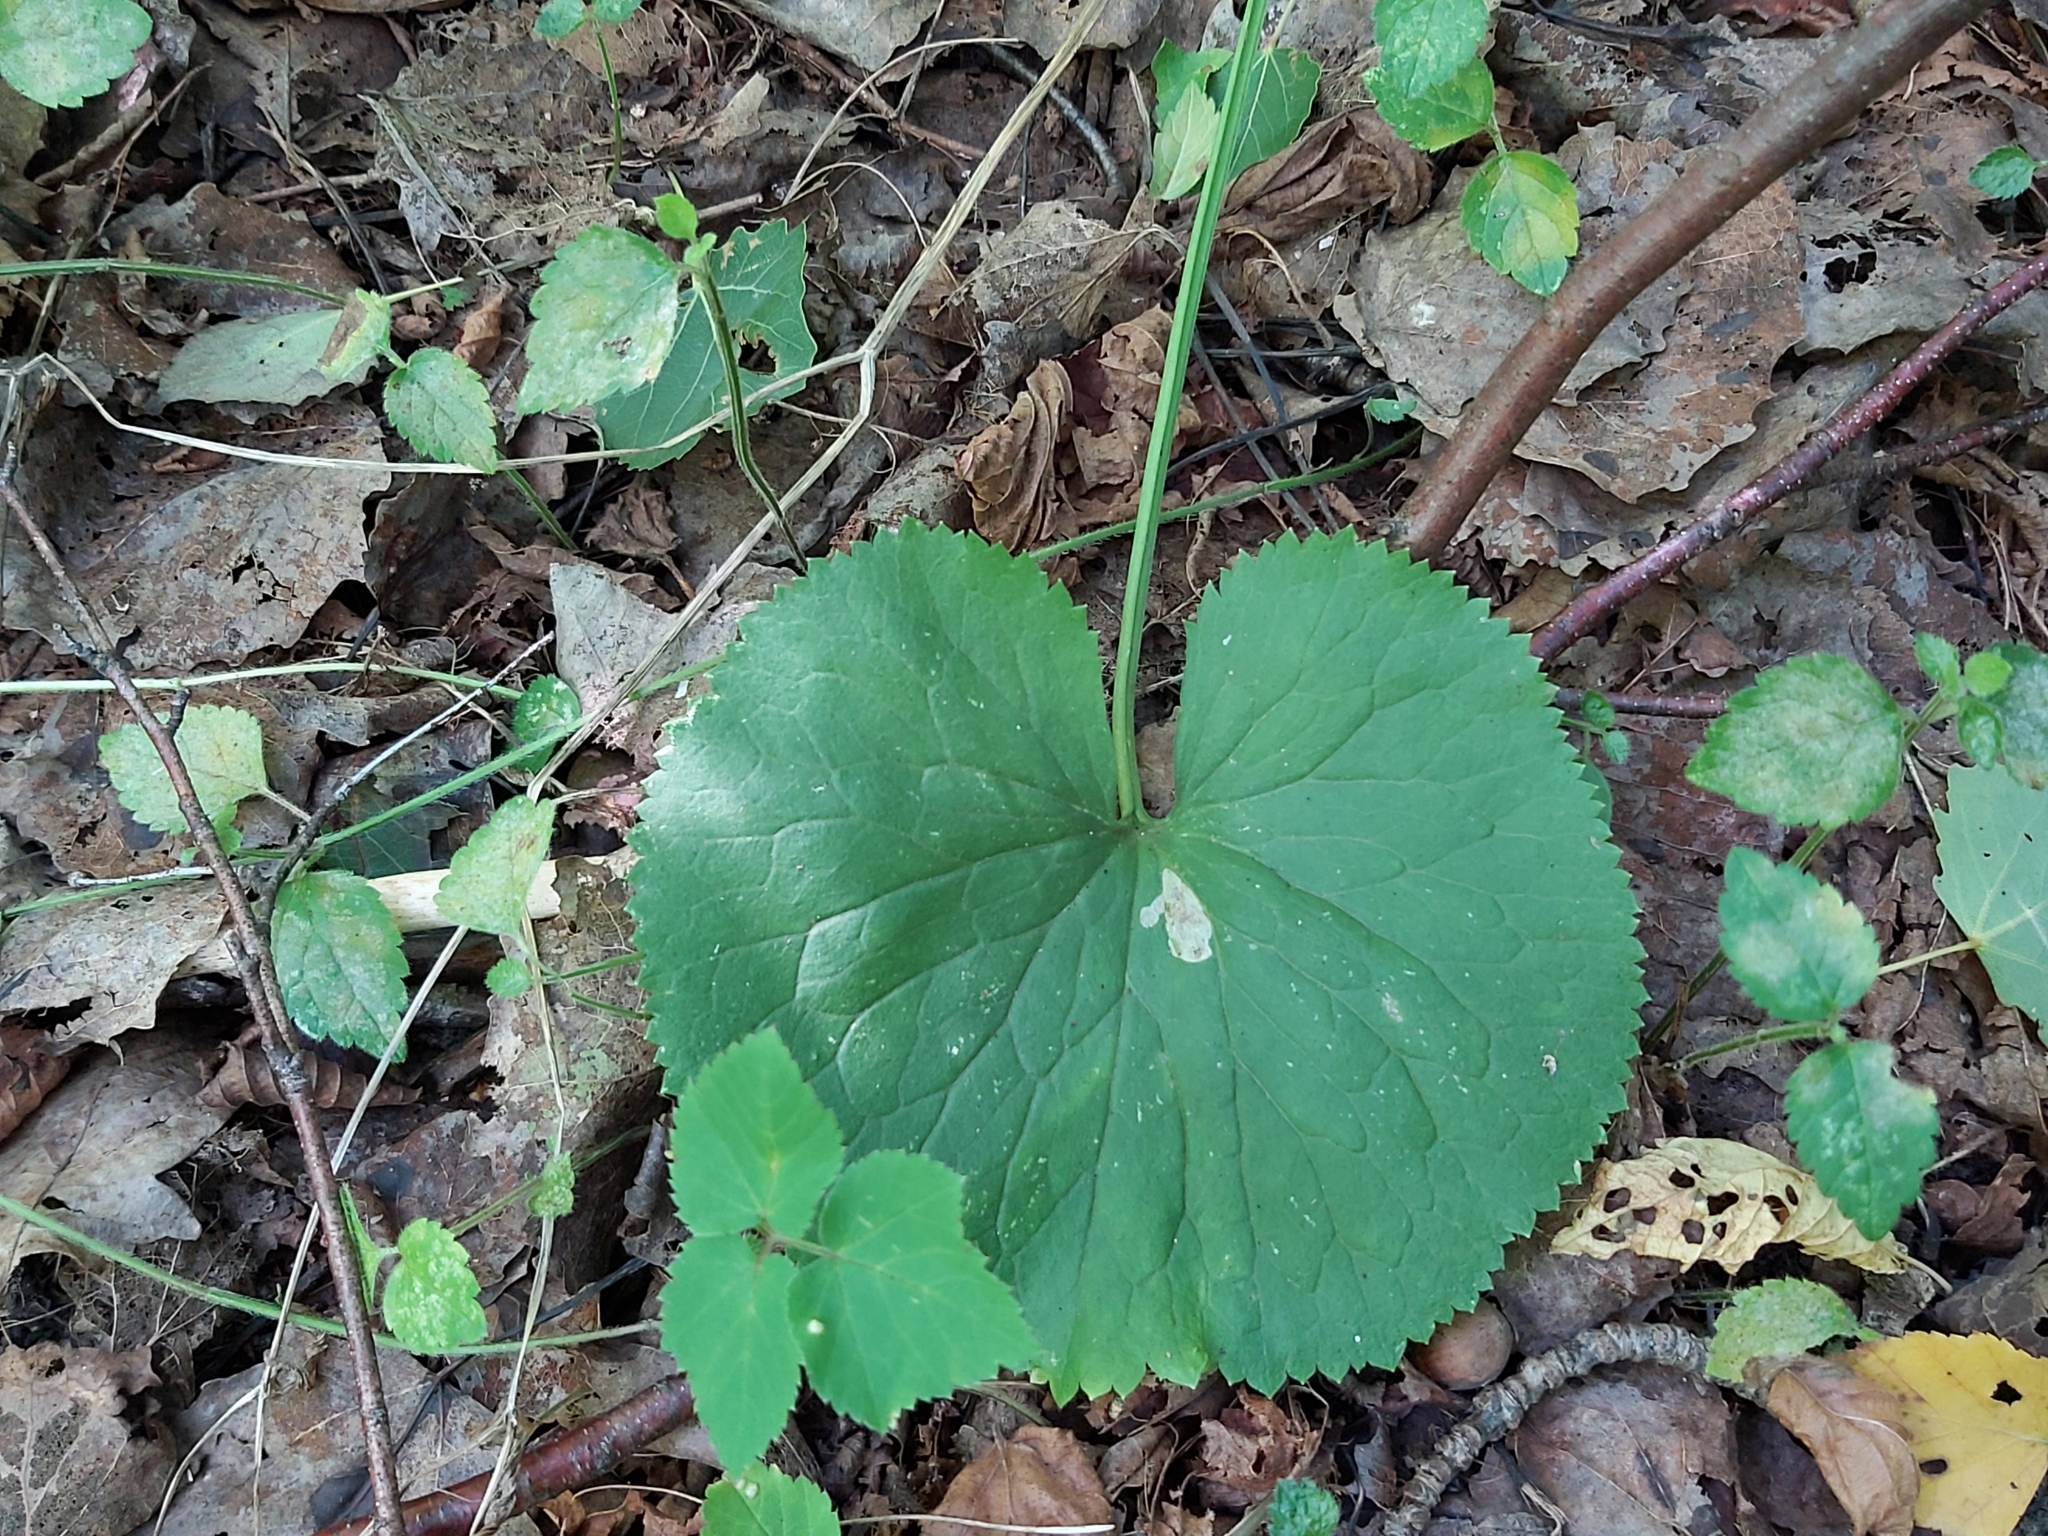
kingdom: Plantae
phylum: Tracheophyta
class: Magnoliopsida
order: Ranunculales
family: Ranunculaceae
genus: Ranunculus
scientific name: Ranunculus cassubicus
